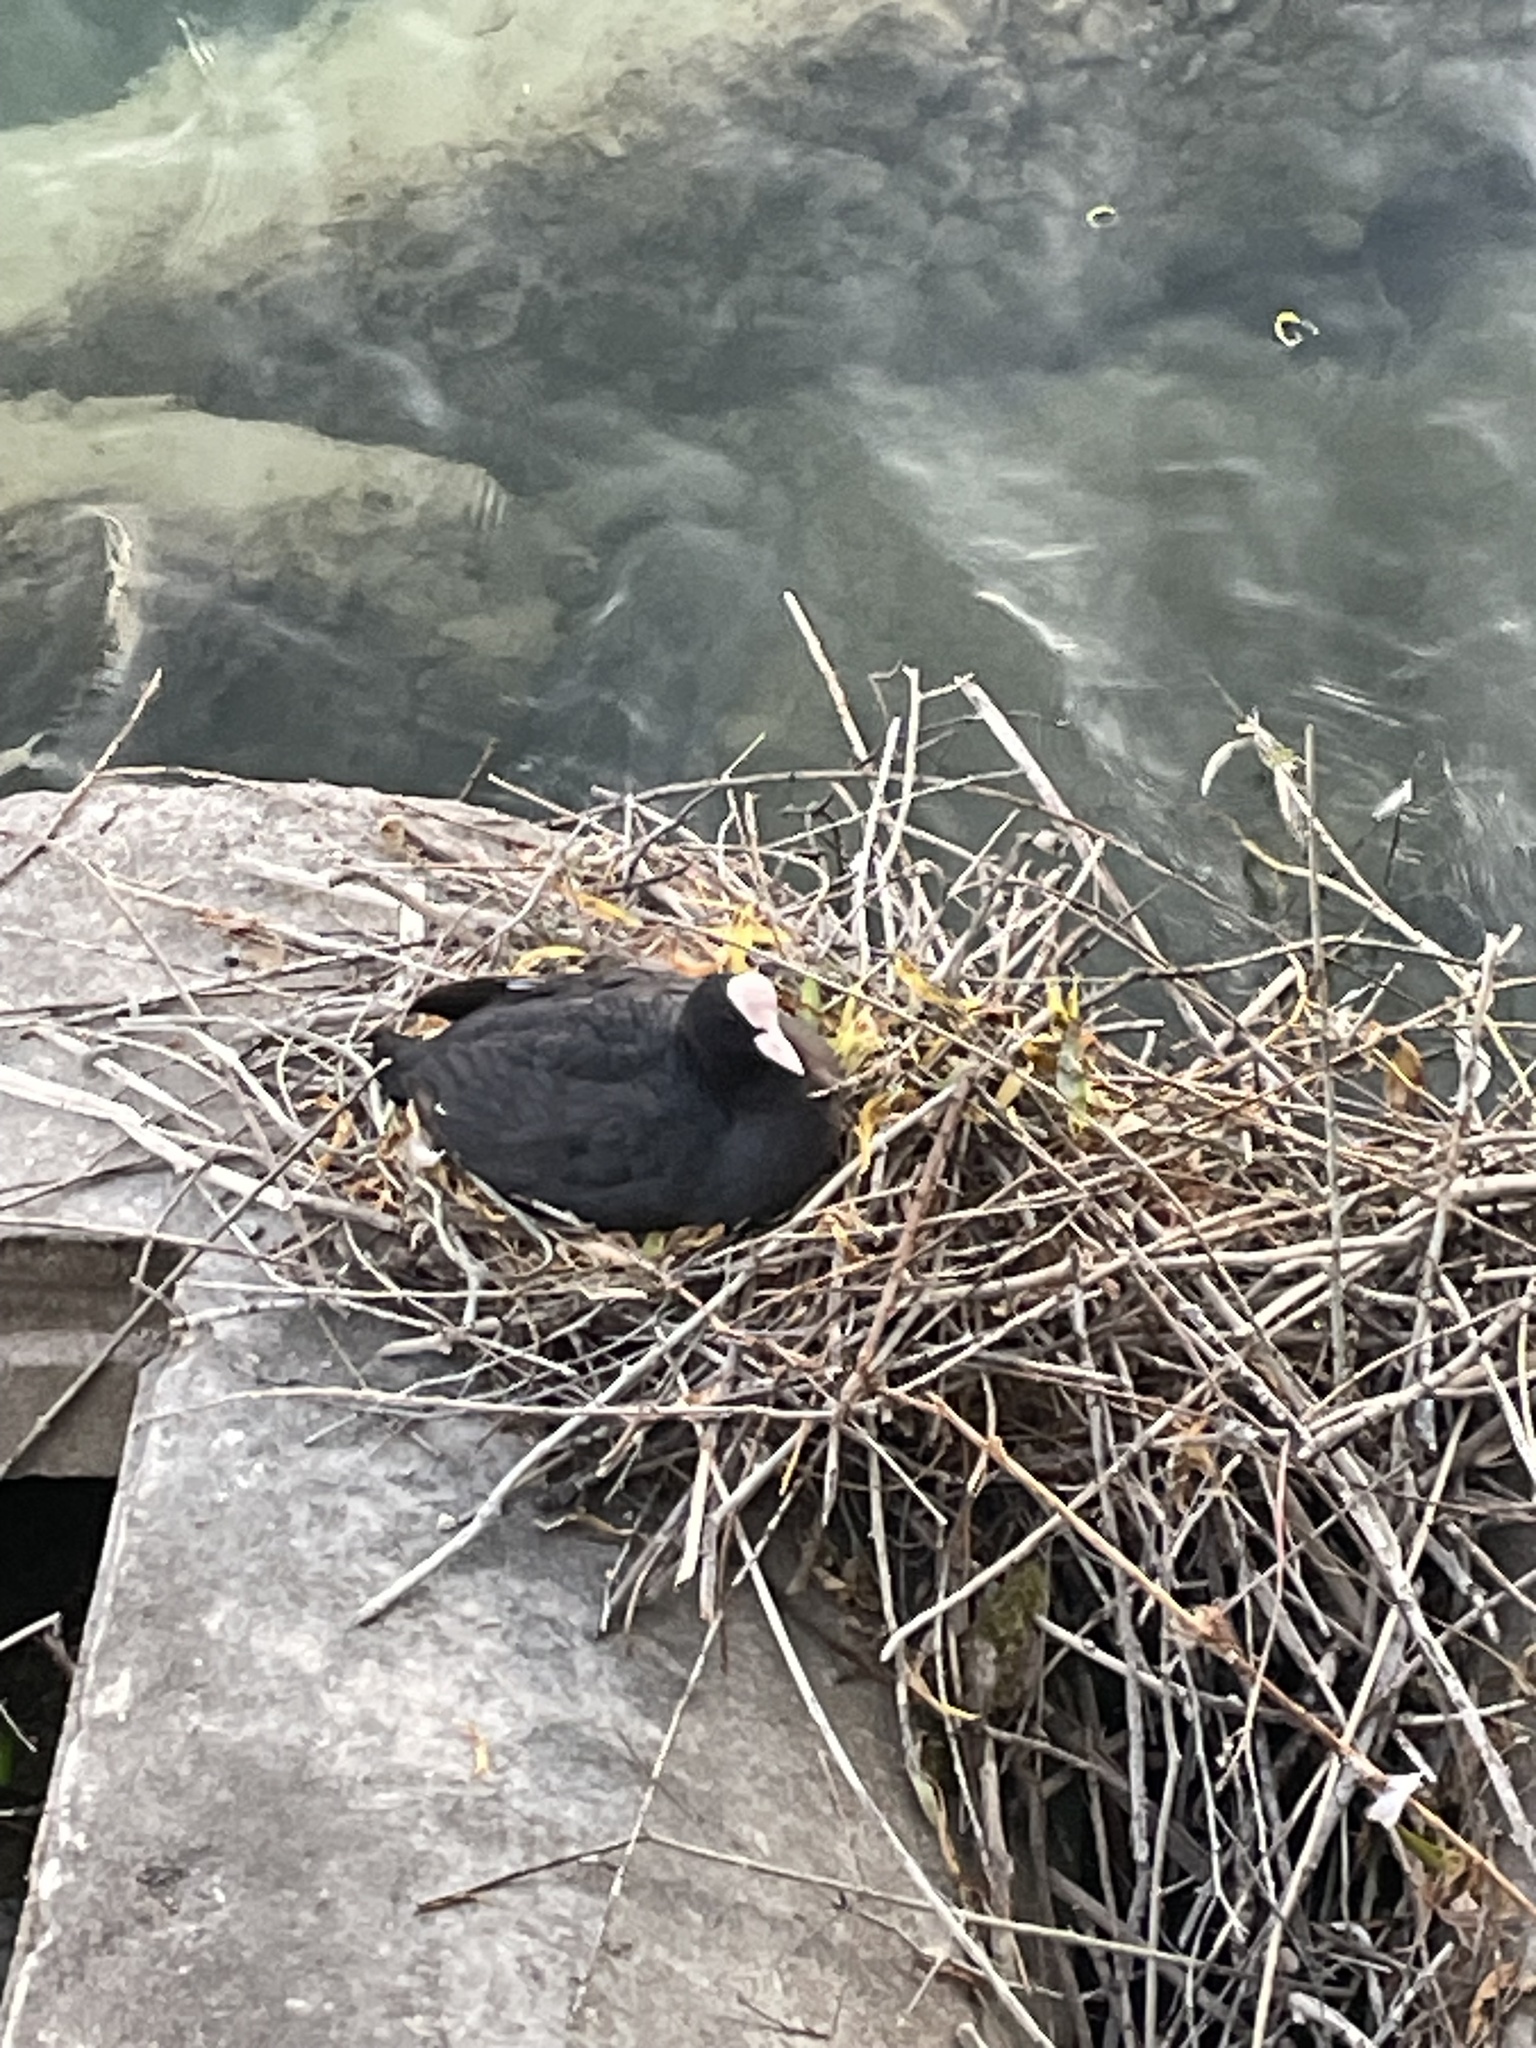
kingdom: Animalia
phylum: Chordata
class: Aves
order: Gruiformes
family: Rallidae
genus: Fulica
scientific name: Fulica atra
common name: Eurasian coot
